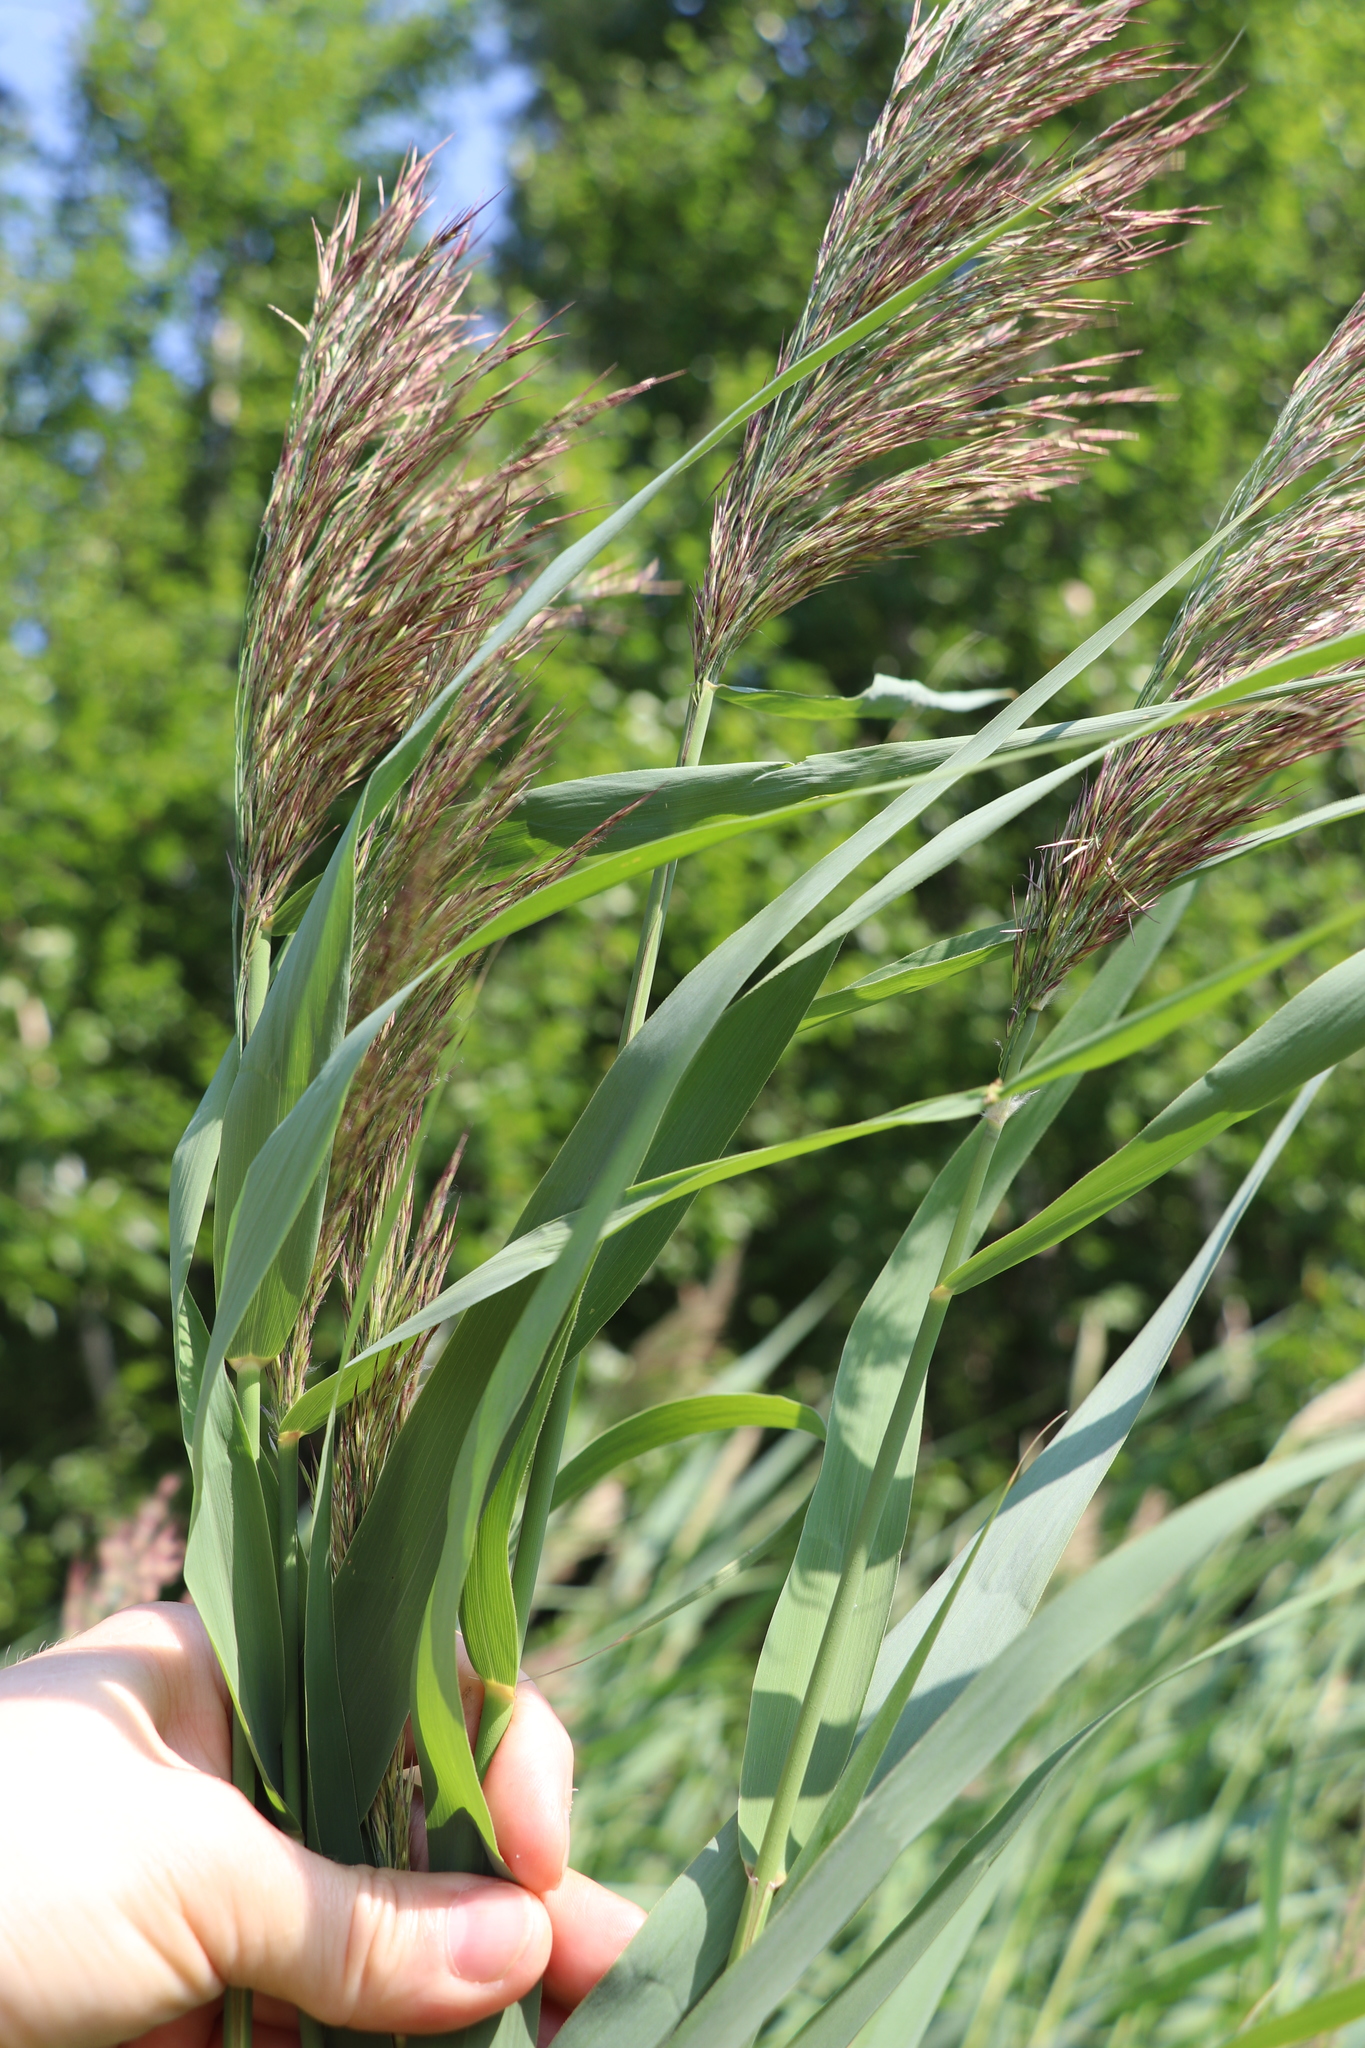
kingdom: Plantae
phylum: Tracheophyta
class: Liliopsida
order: Poales
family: Poaceae
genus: Phragmites
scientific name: Phragmites australis
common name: Common reed
